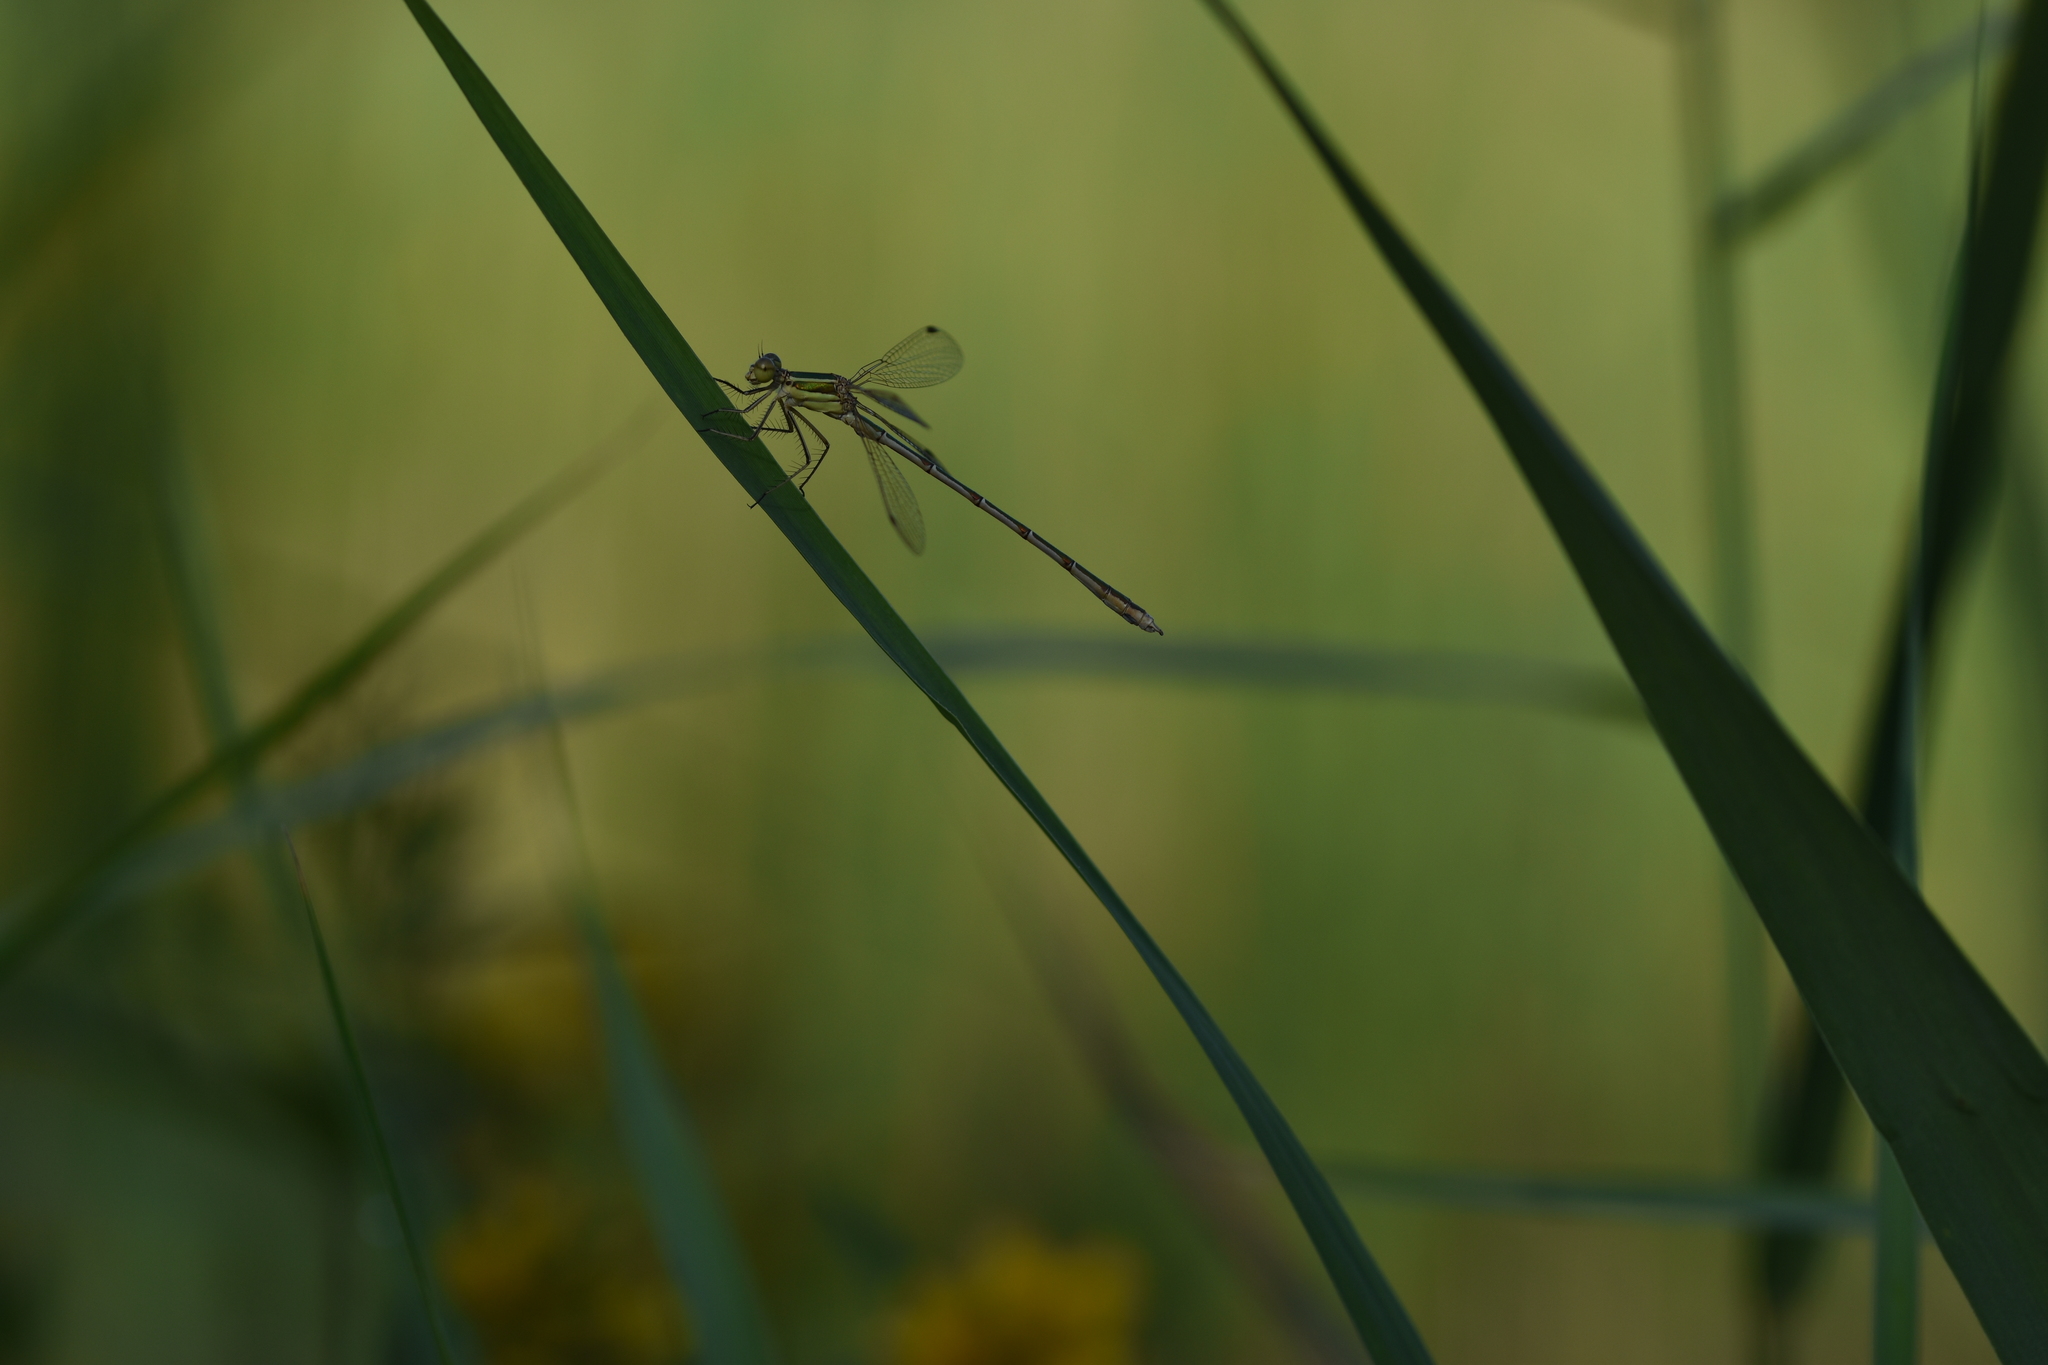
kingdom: Animalia
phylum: Arthropoda
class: Insecta
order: Odonata
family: Lestidae
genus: Lestes
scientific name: Lestes barbarus
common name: Migrant spreadwing
